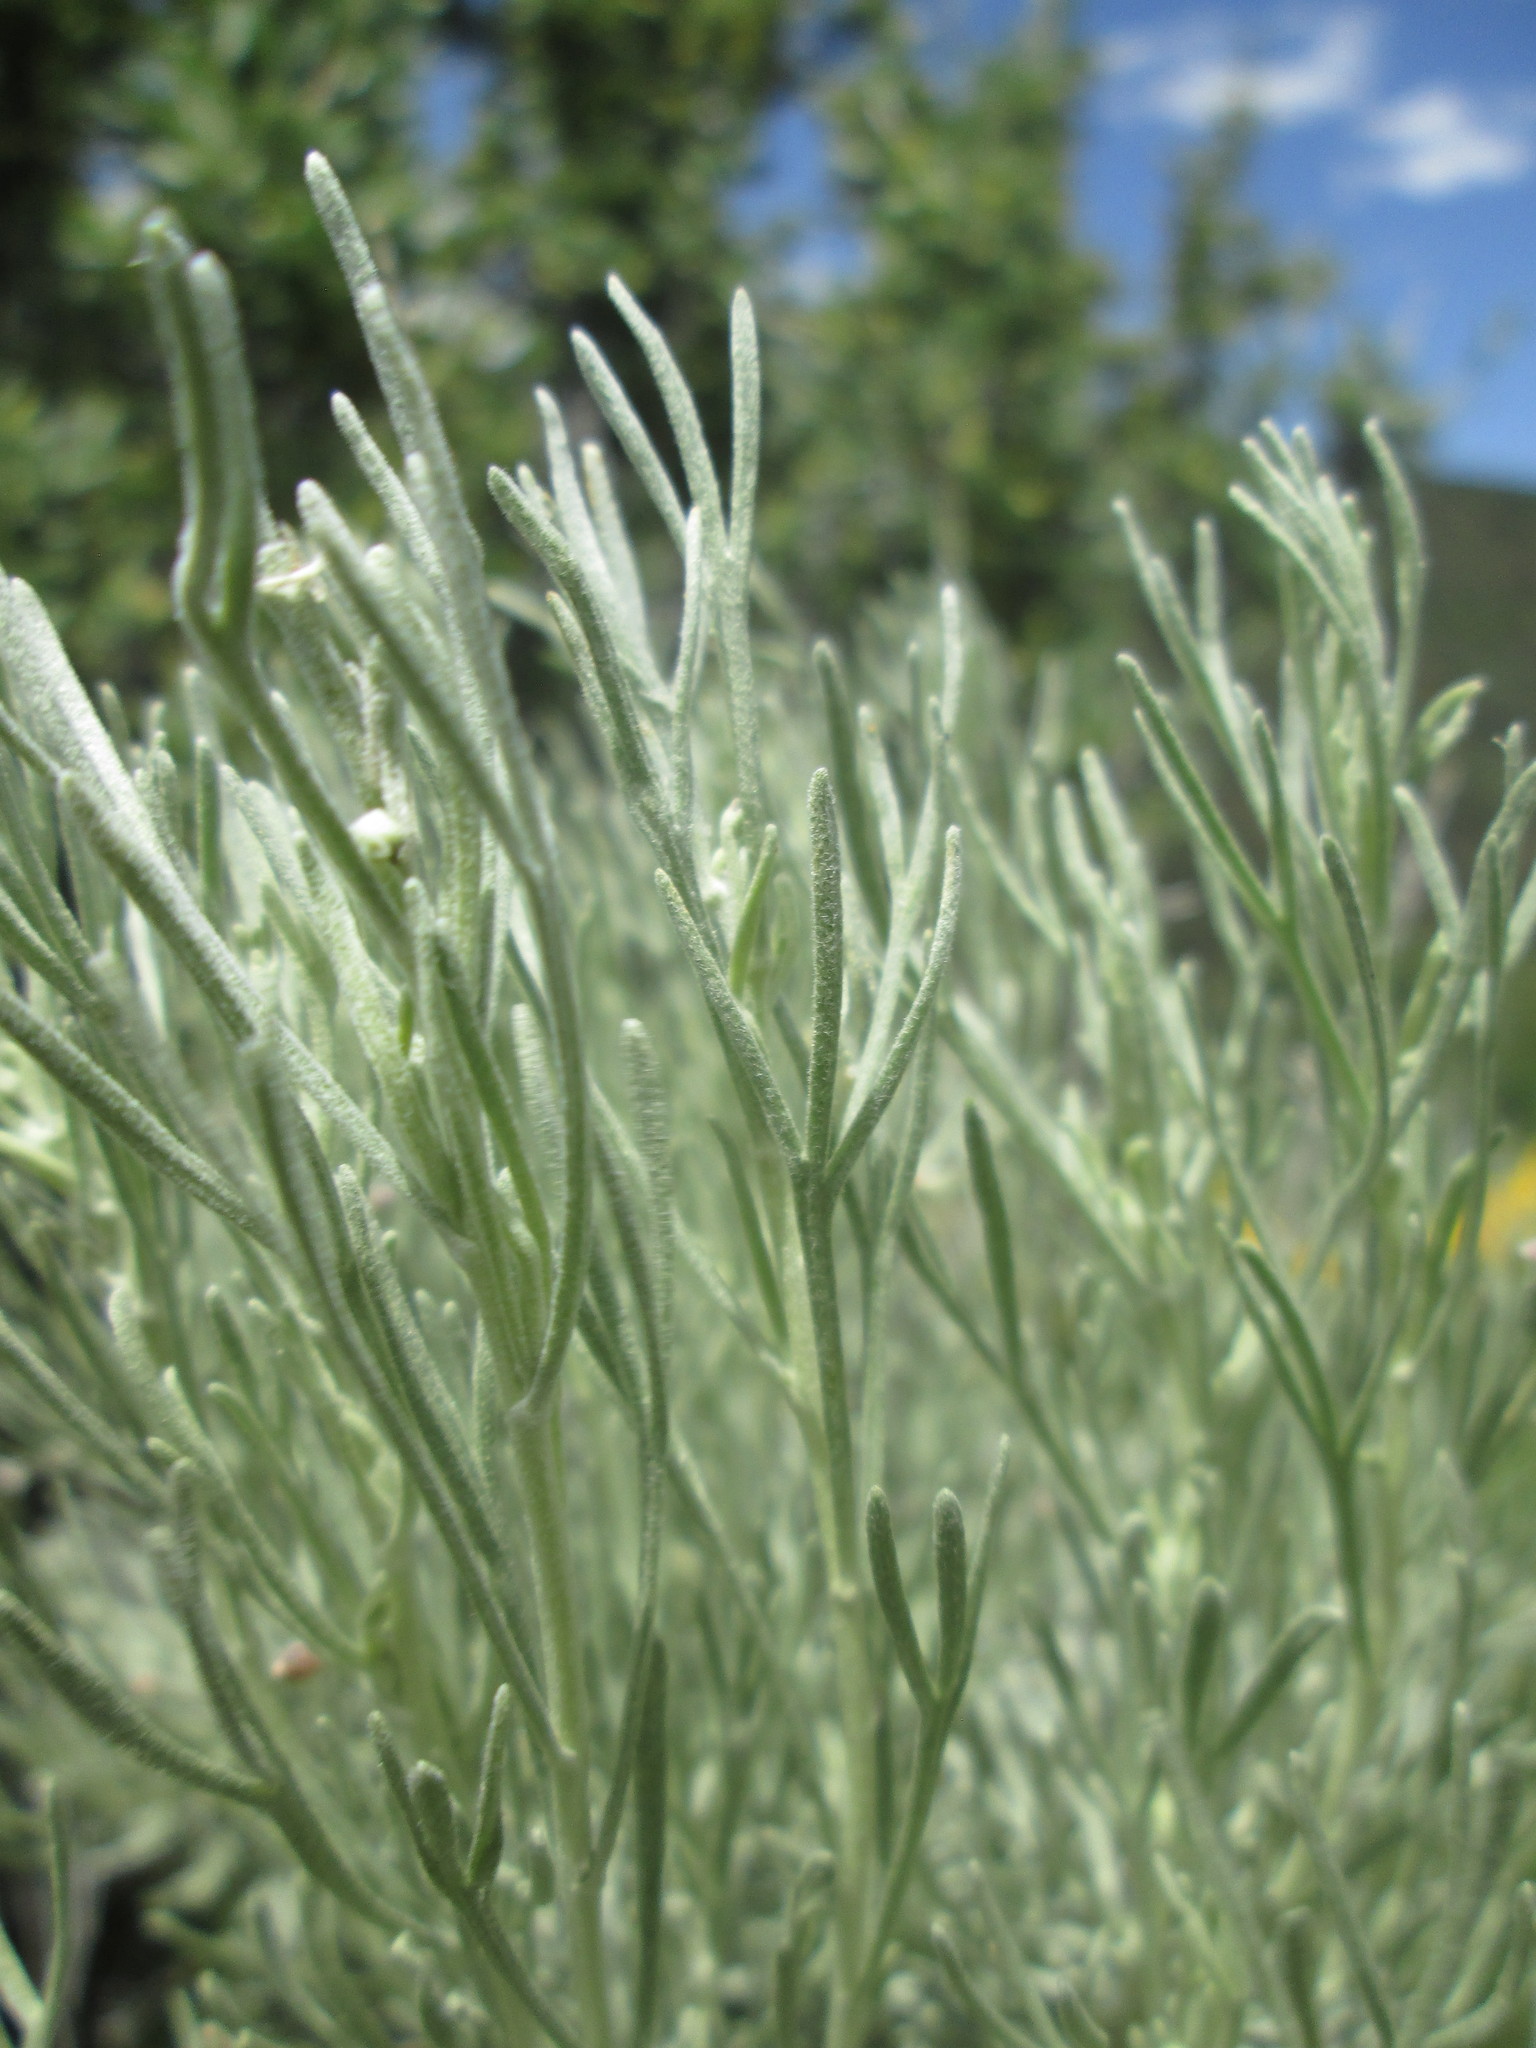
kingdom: Plantae
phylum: Tracheophyta
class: Magnoliopsida
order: Asterales
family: Asteraceae
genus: Artemisia
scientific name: Artemisia tripartita
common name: Three-tip sagebrush
